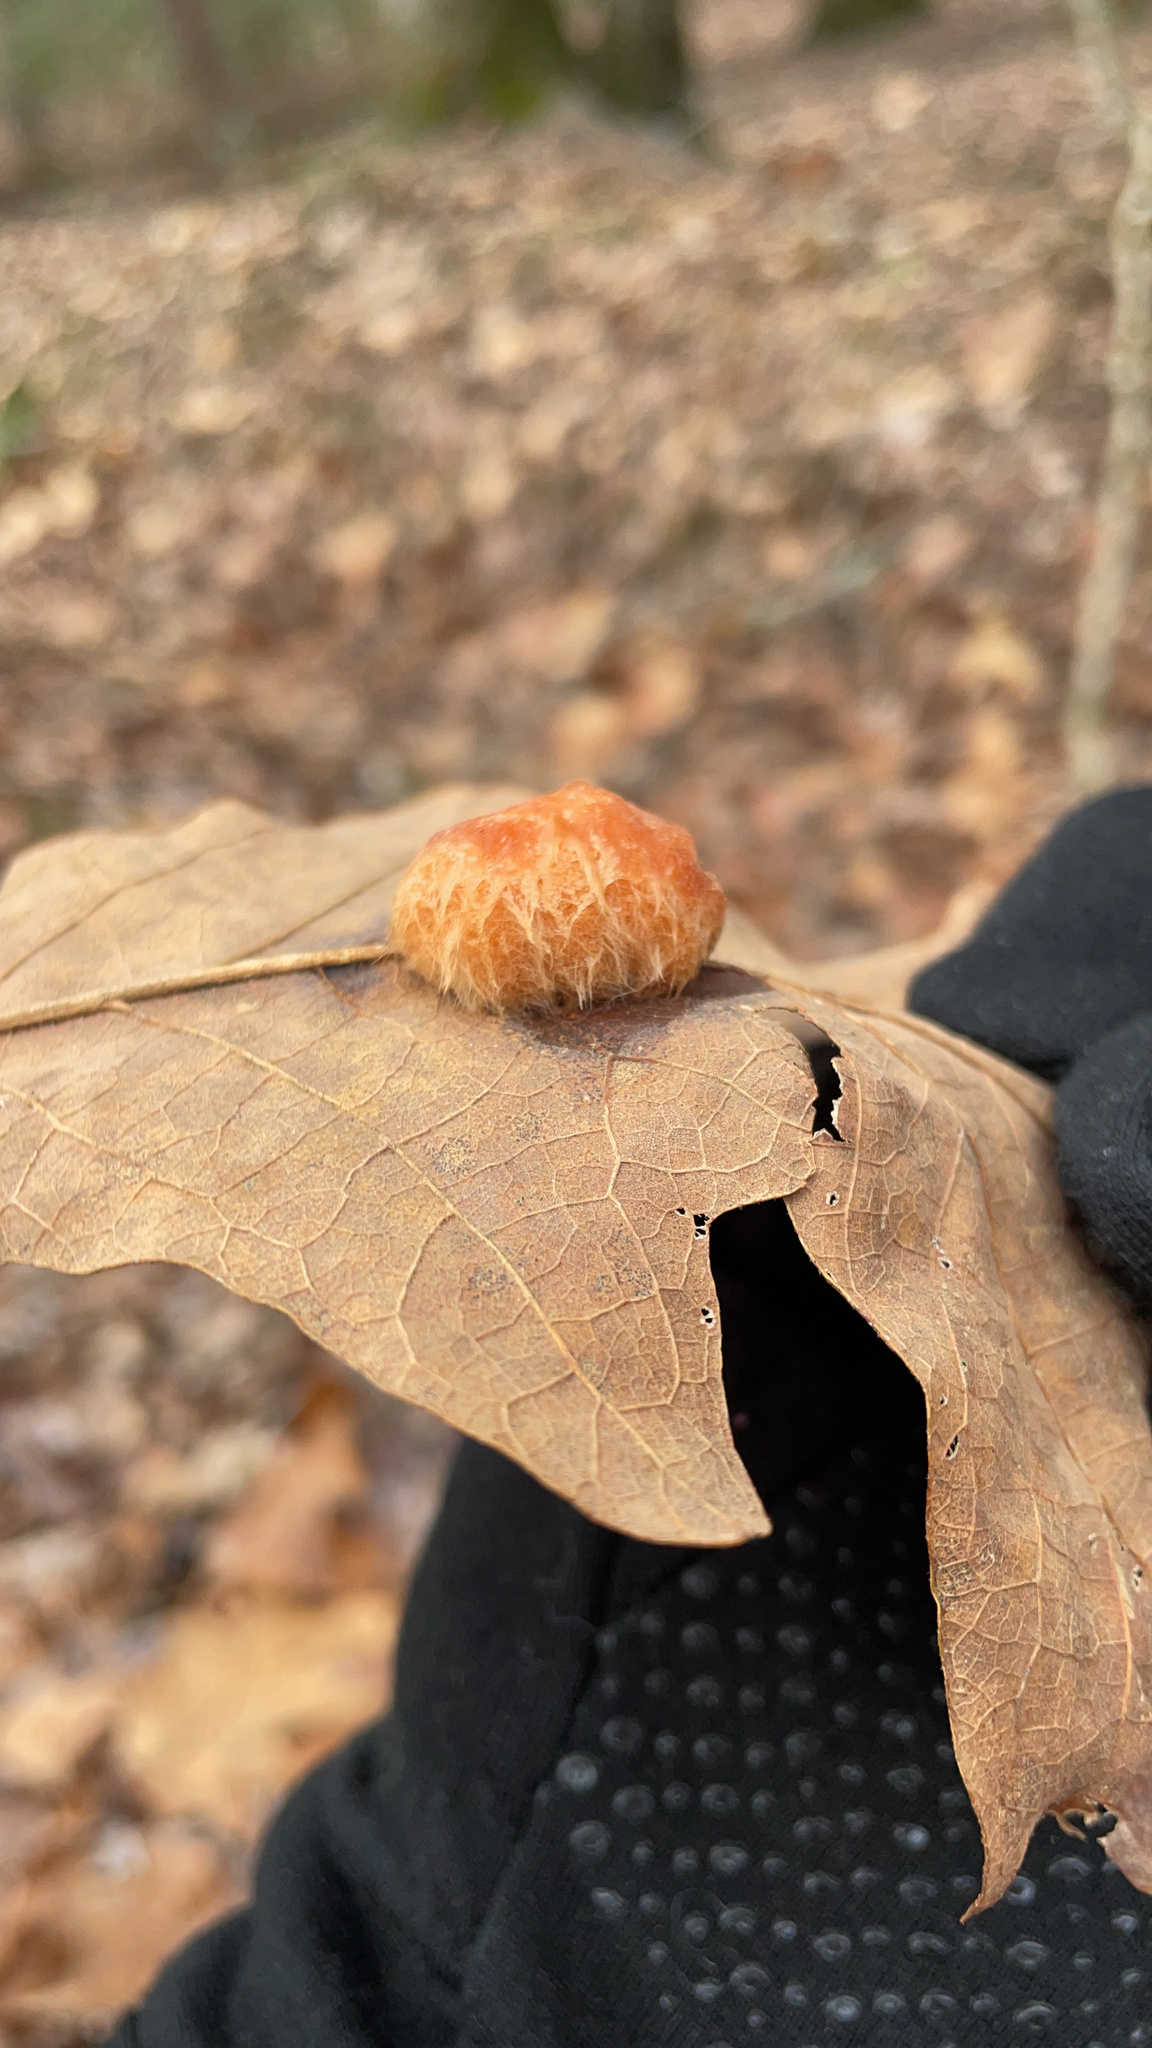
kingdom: Animalia
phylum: Arthropoda
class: Insecta
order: Hymenoptera
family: Cynipidae
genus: Andricus
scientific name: Andricus quercusflocci
